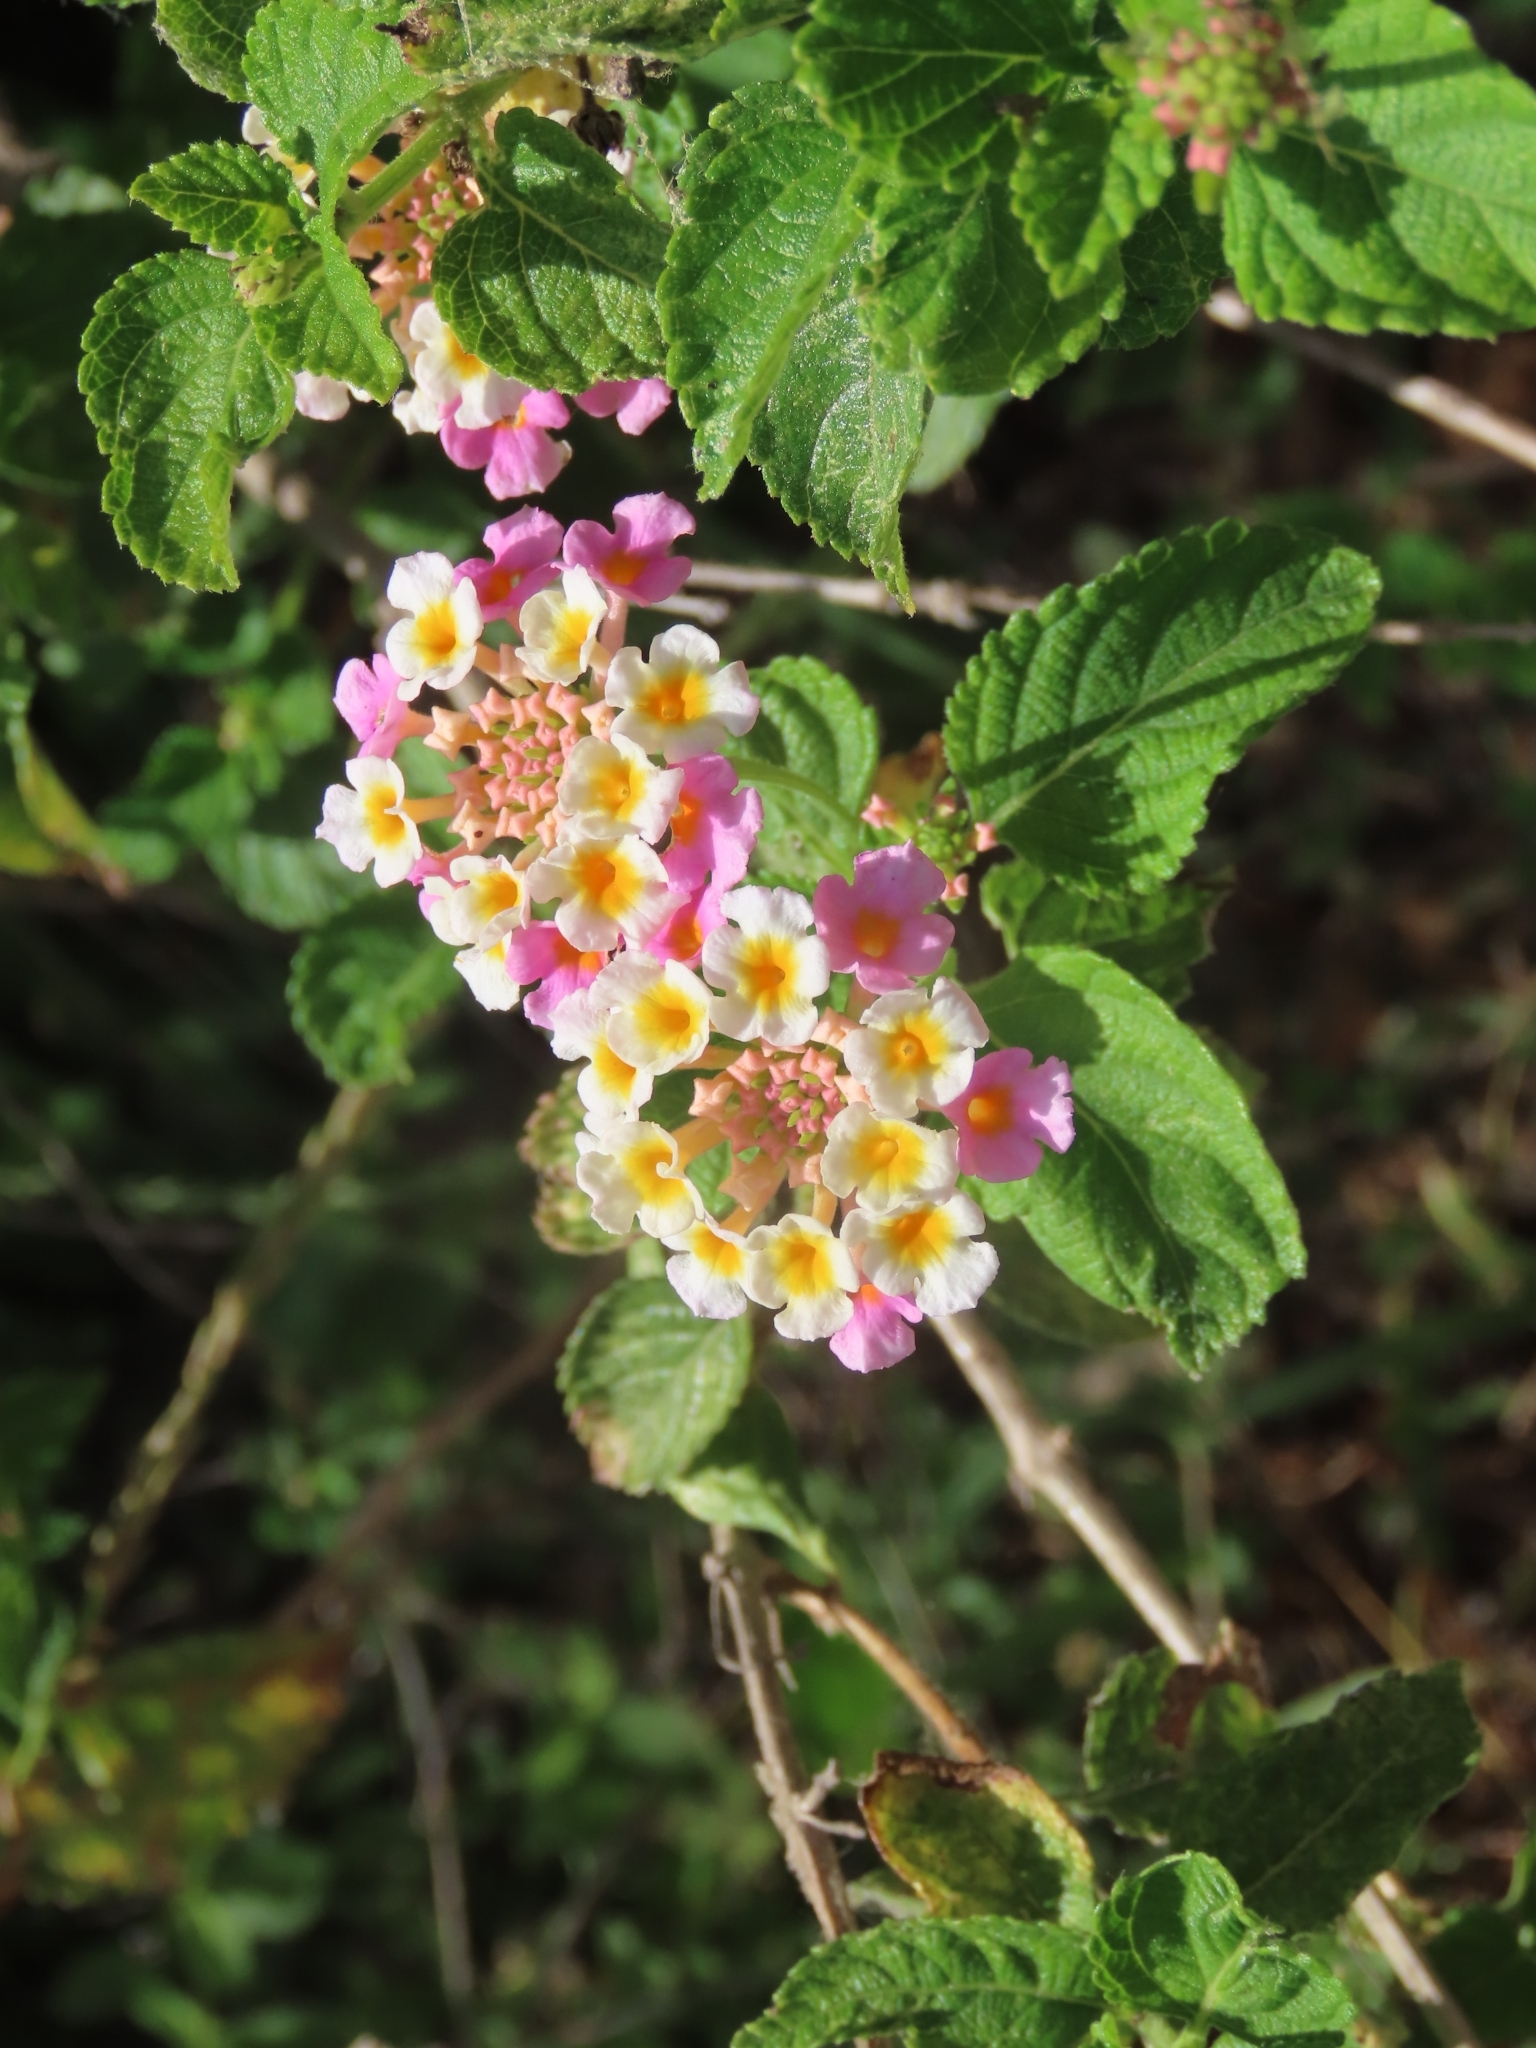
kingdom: Plantae
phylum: Tracheophyta
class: Magnoliopsida
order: Lamiales
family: Verbenaceae
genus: Lantana
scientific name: Lantana strigocamara
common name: Lantana
